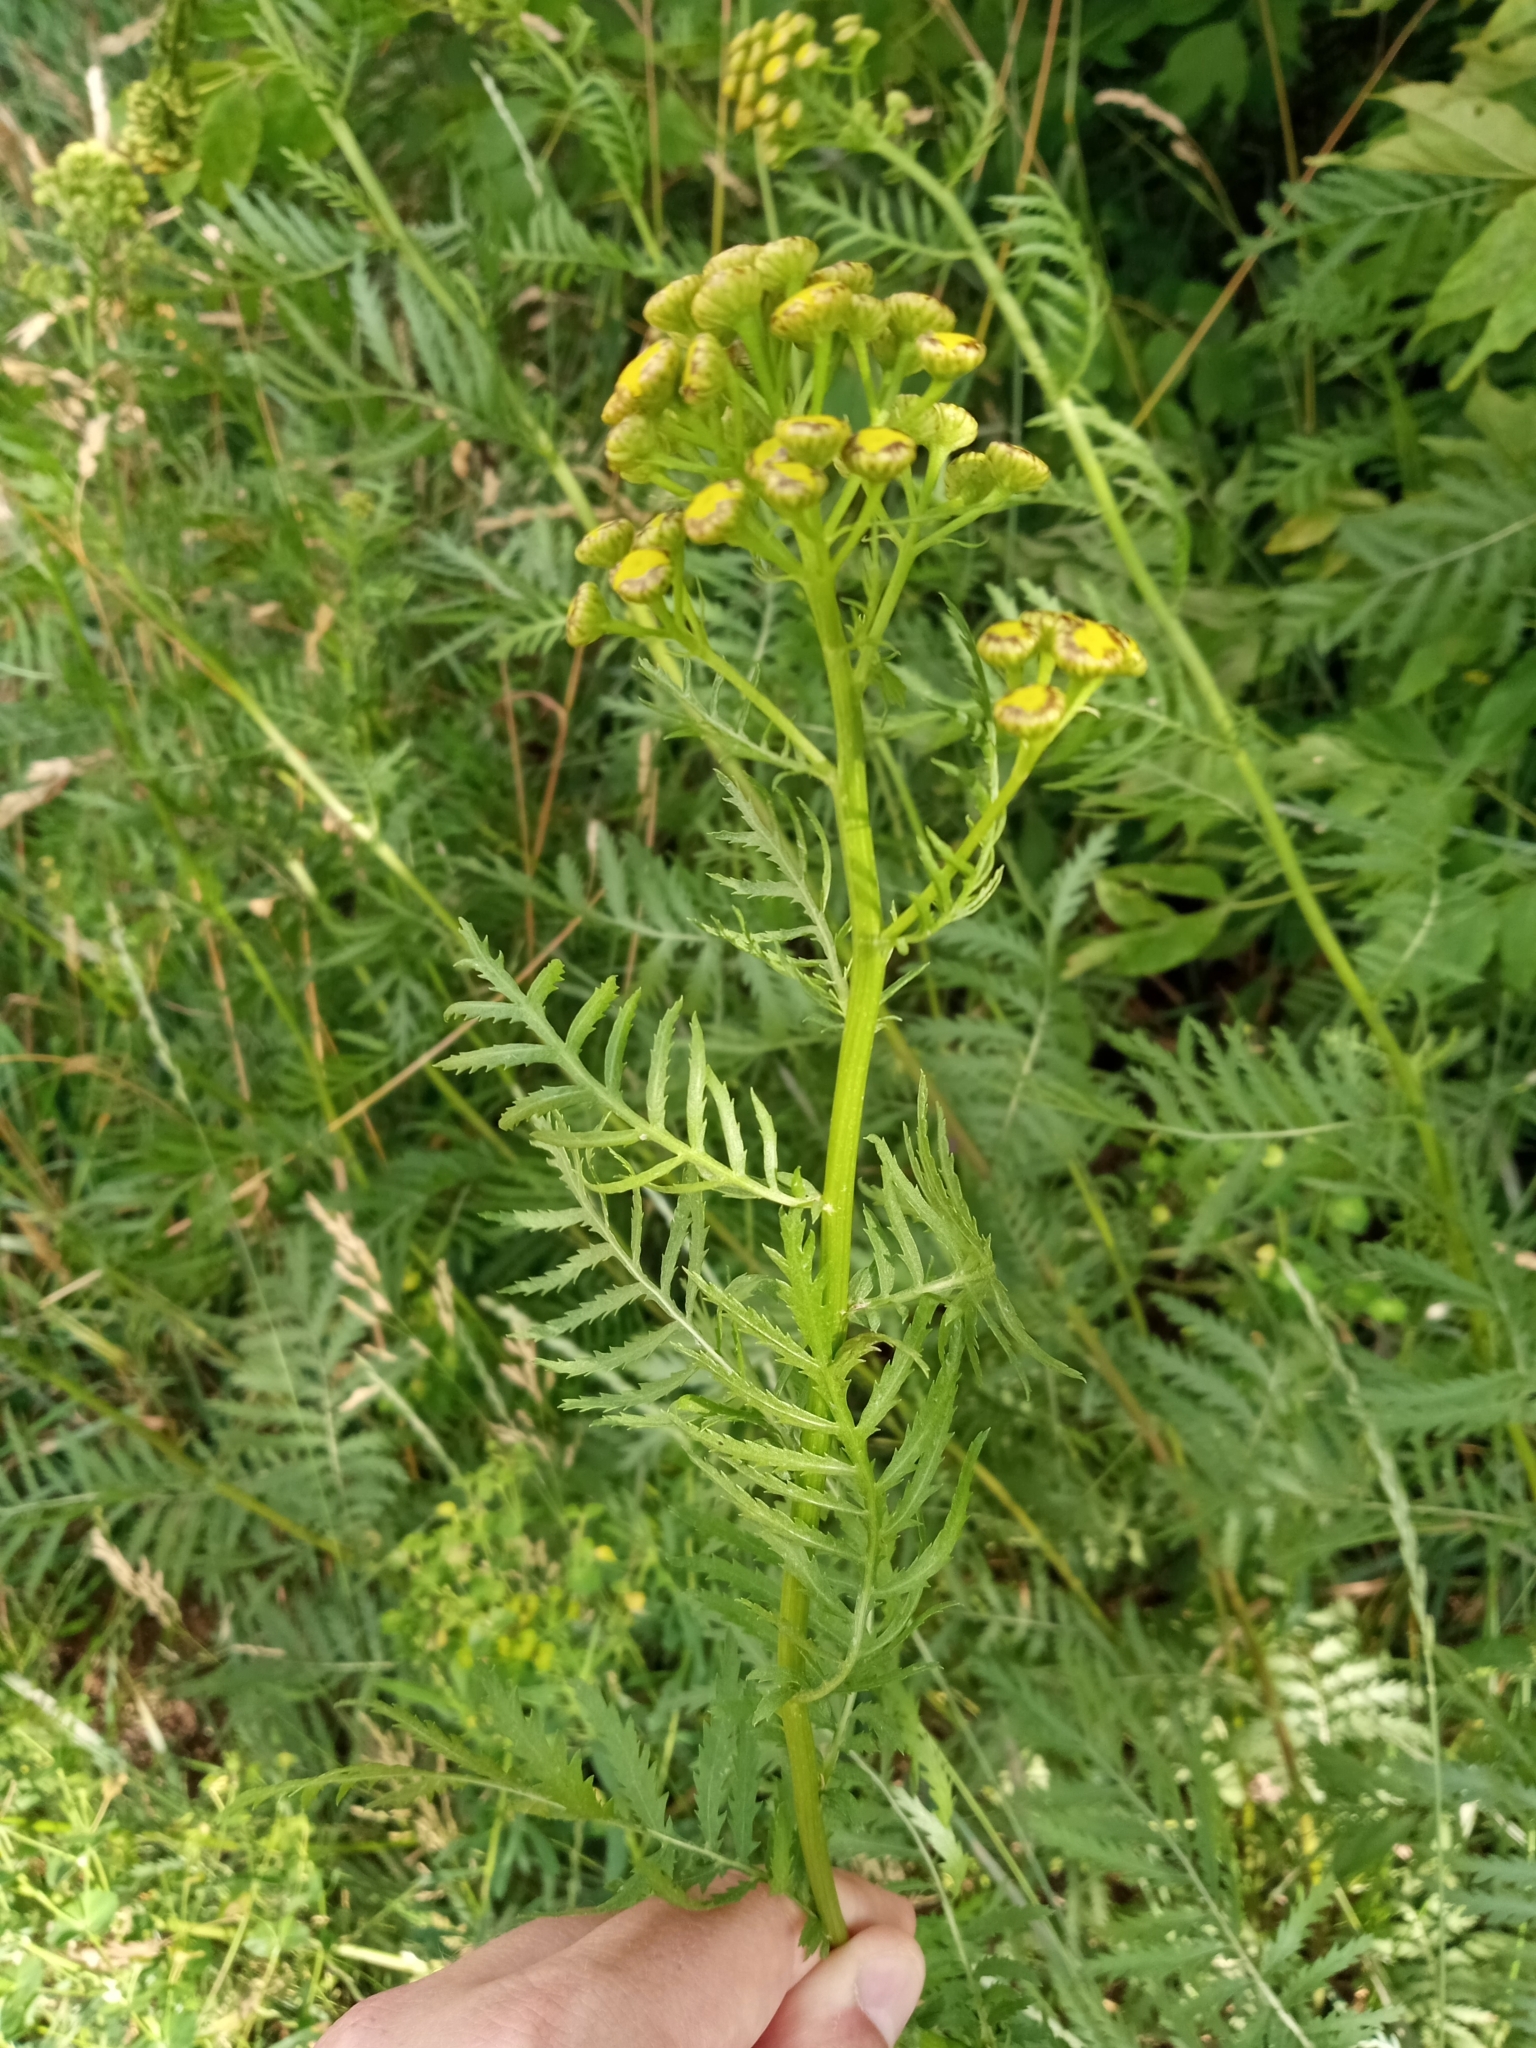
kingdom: Plantae
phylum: Tracheophyta
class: Magnoliopsida
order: Asterales
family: Asteraceae
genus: Tanacetum
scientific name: Tanacetum vulgare
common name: Common tansy
